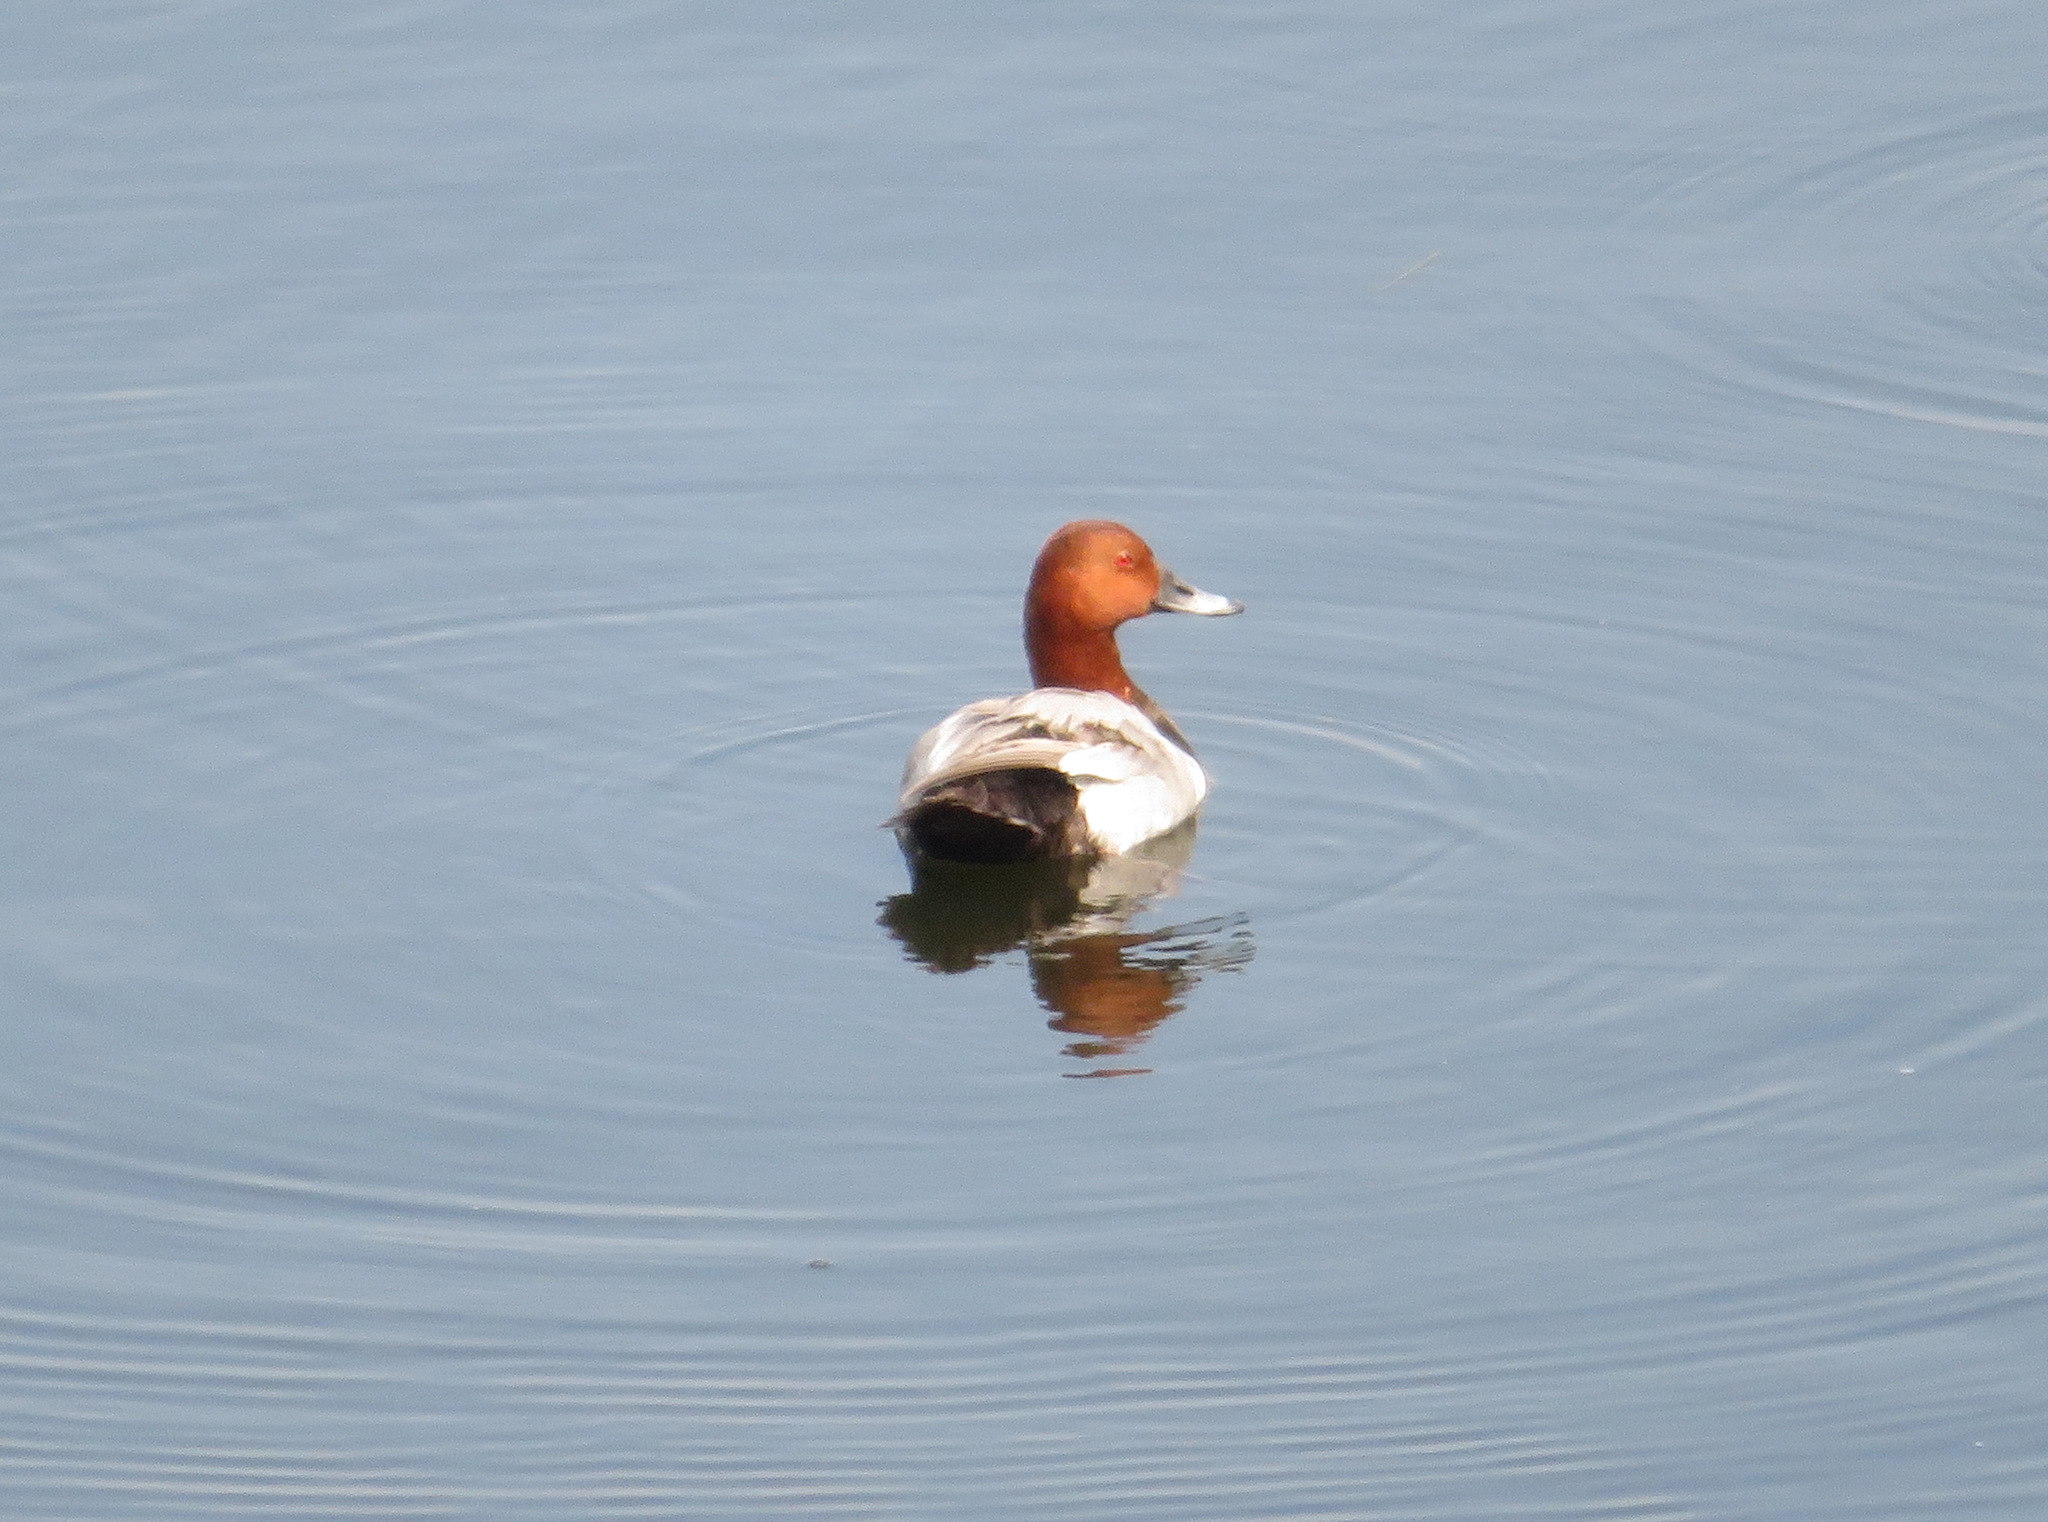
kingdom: Animalia
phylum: Chordata
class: Aves
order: Anseriformes
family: Anatidae
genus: Aythya
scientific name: Aythya ferina
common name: Common pochard
